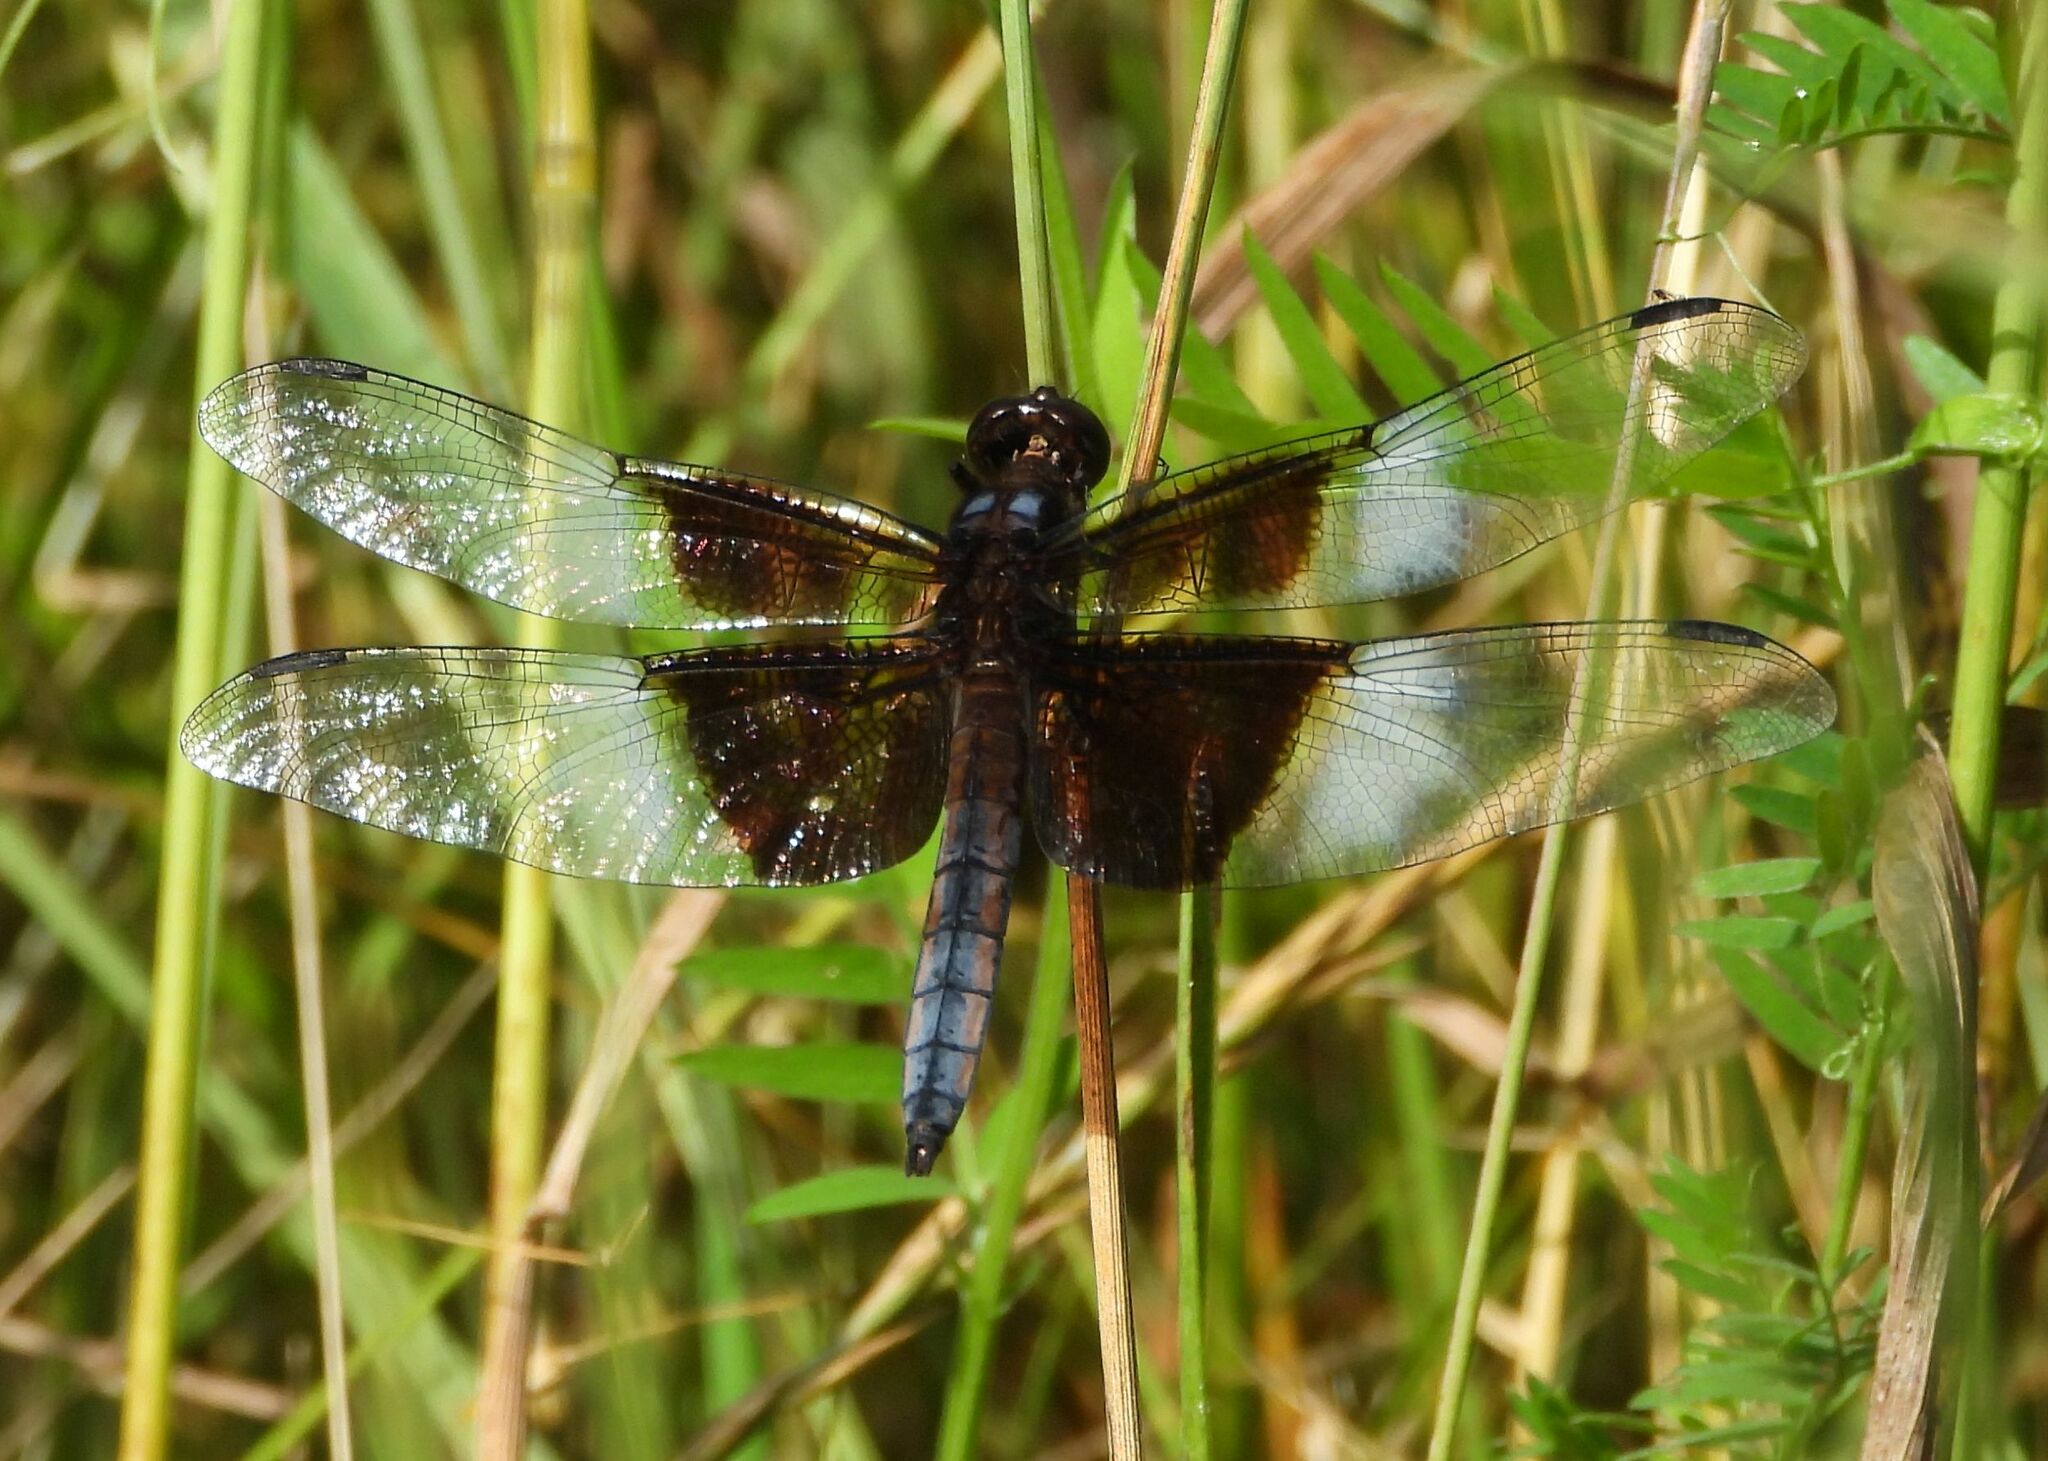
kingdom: Animalia
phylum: Arthropoda
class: Insecta
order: Odonata
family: Libellulidae
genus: Libellula
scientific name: Libellula luctuosa
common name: Widow skimmer
